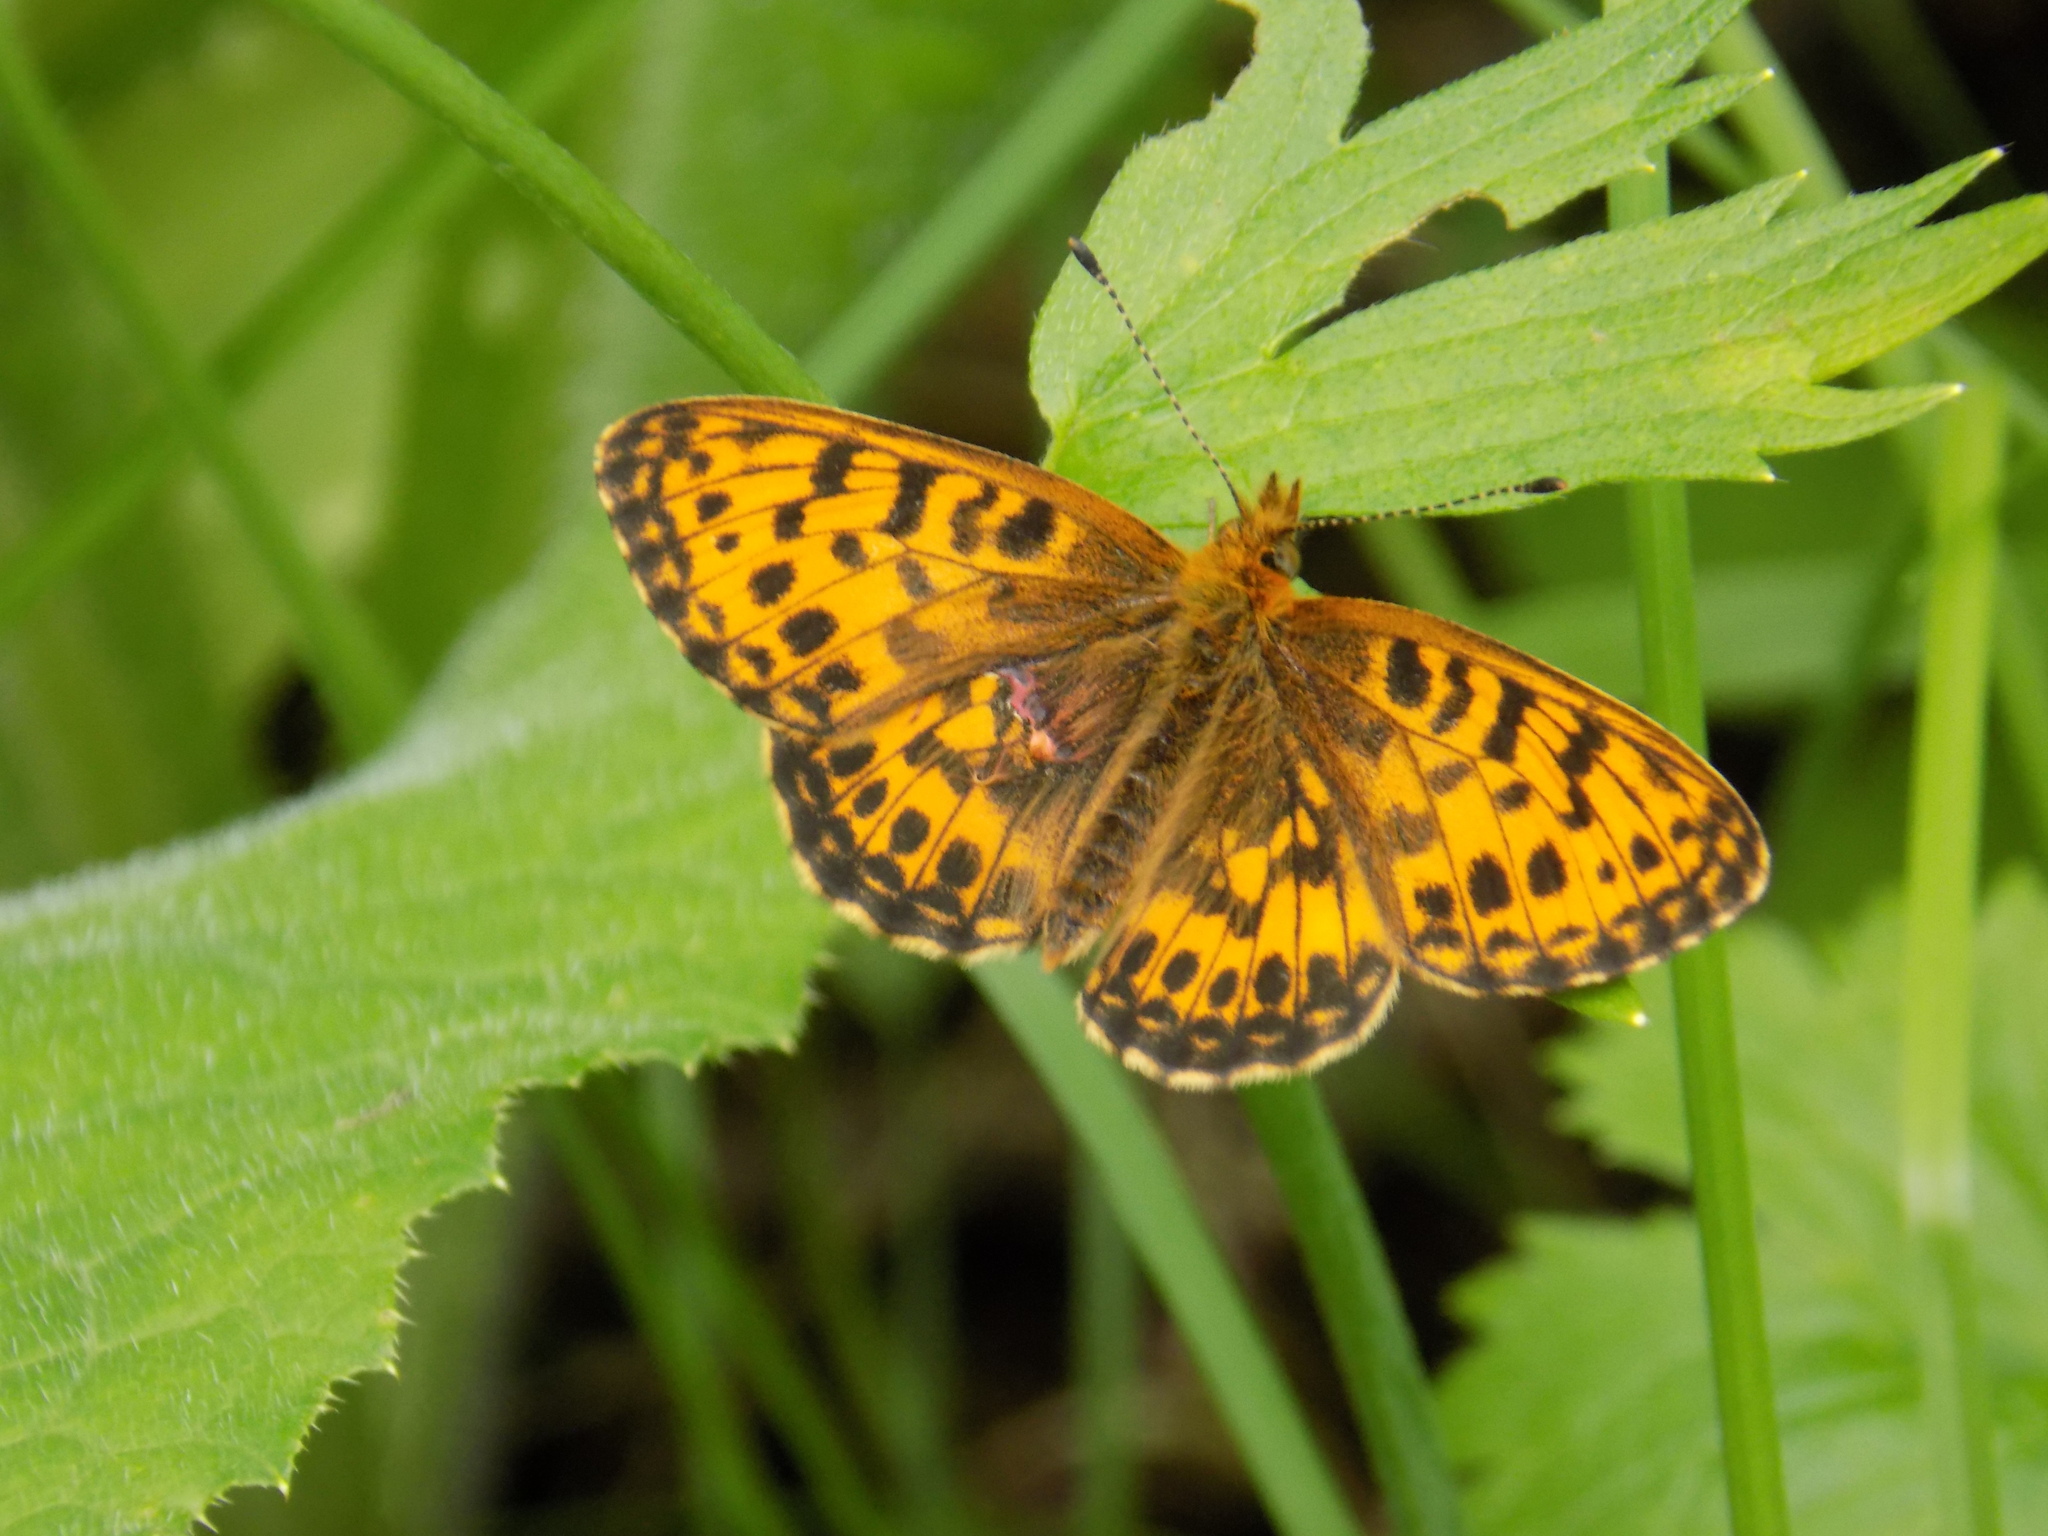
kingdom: Animalia
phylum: Arthropoda
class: Insecta
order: Lepidoptera
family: Nymphalidae
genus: Boloria
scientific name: Boloria thore
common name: Thor's fritillary
